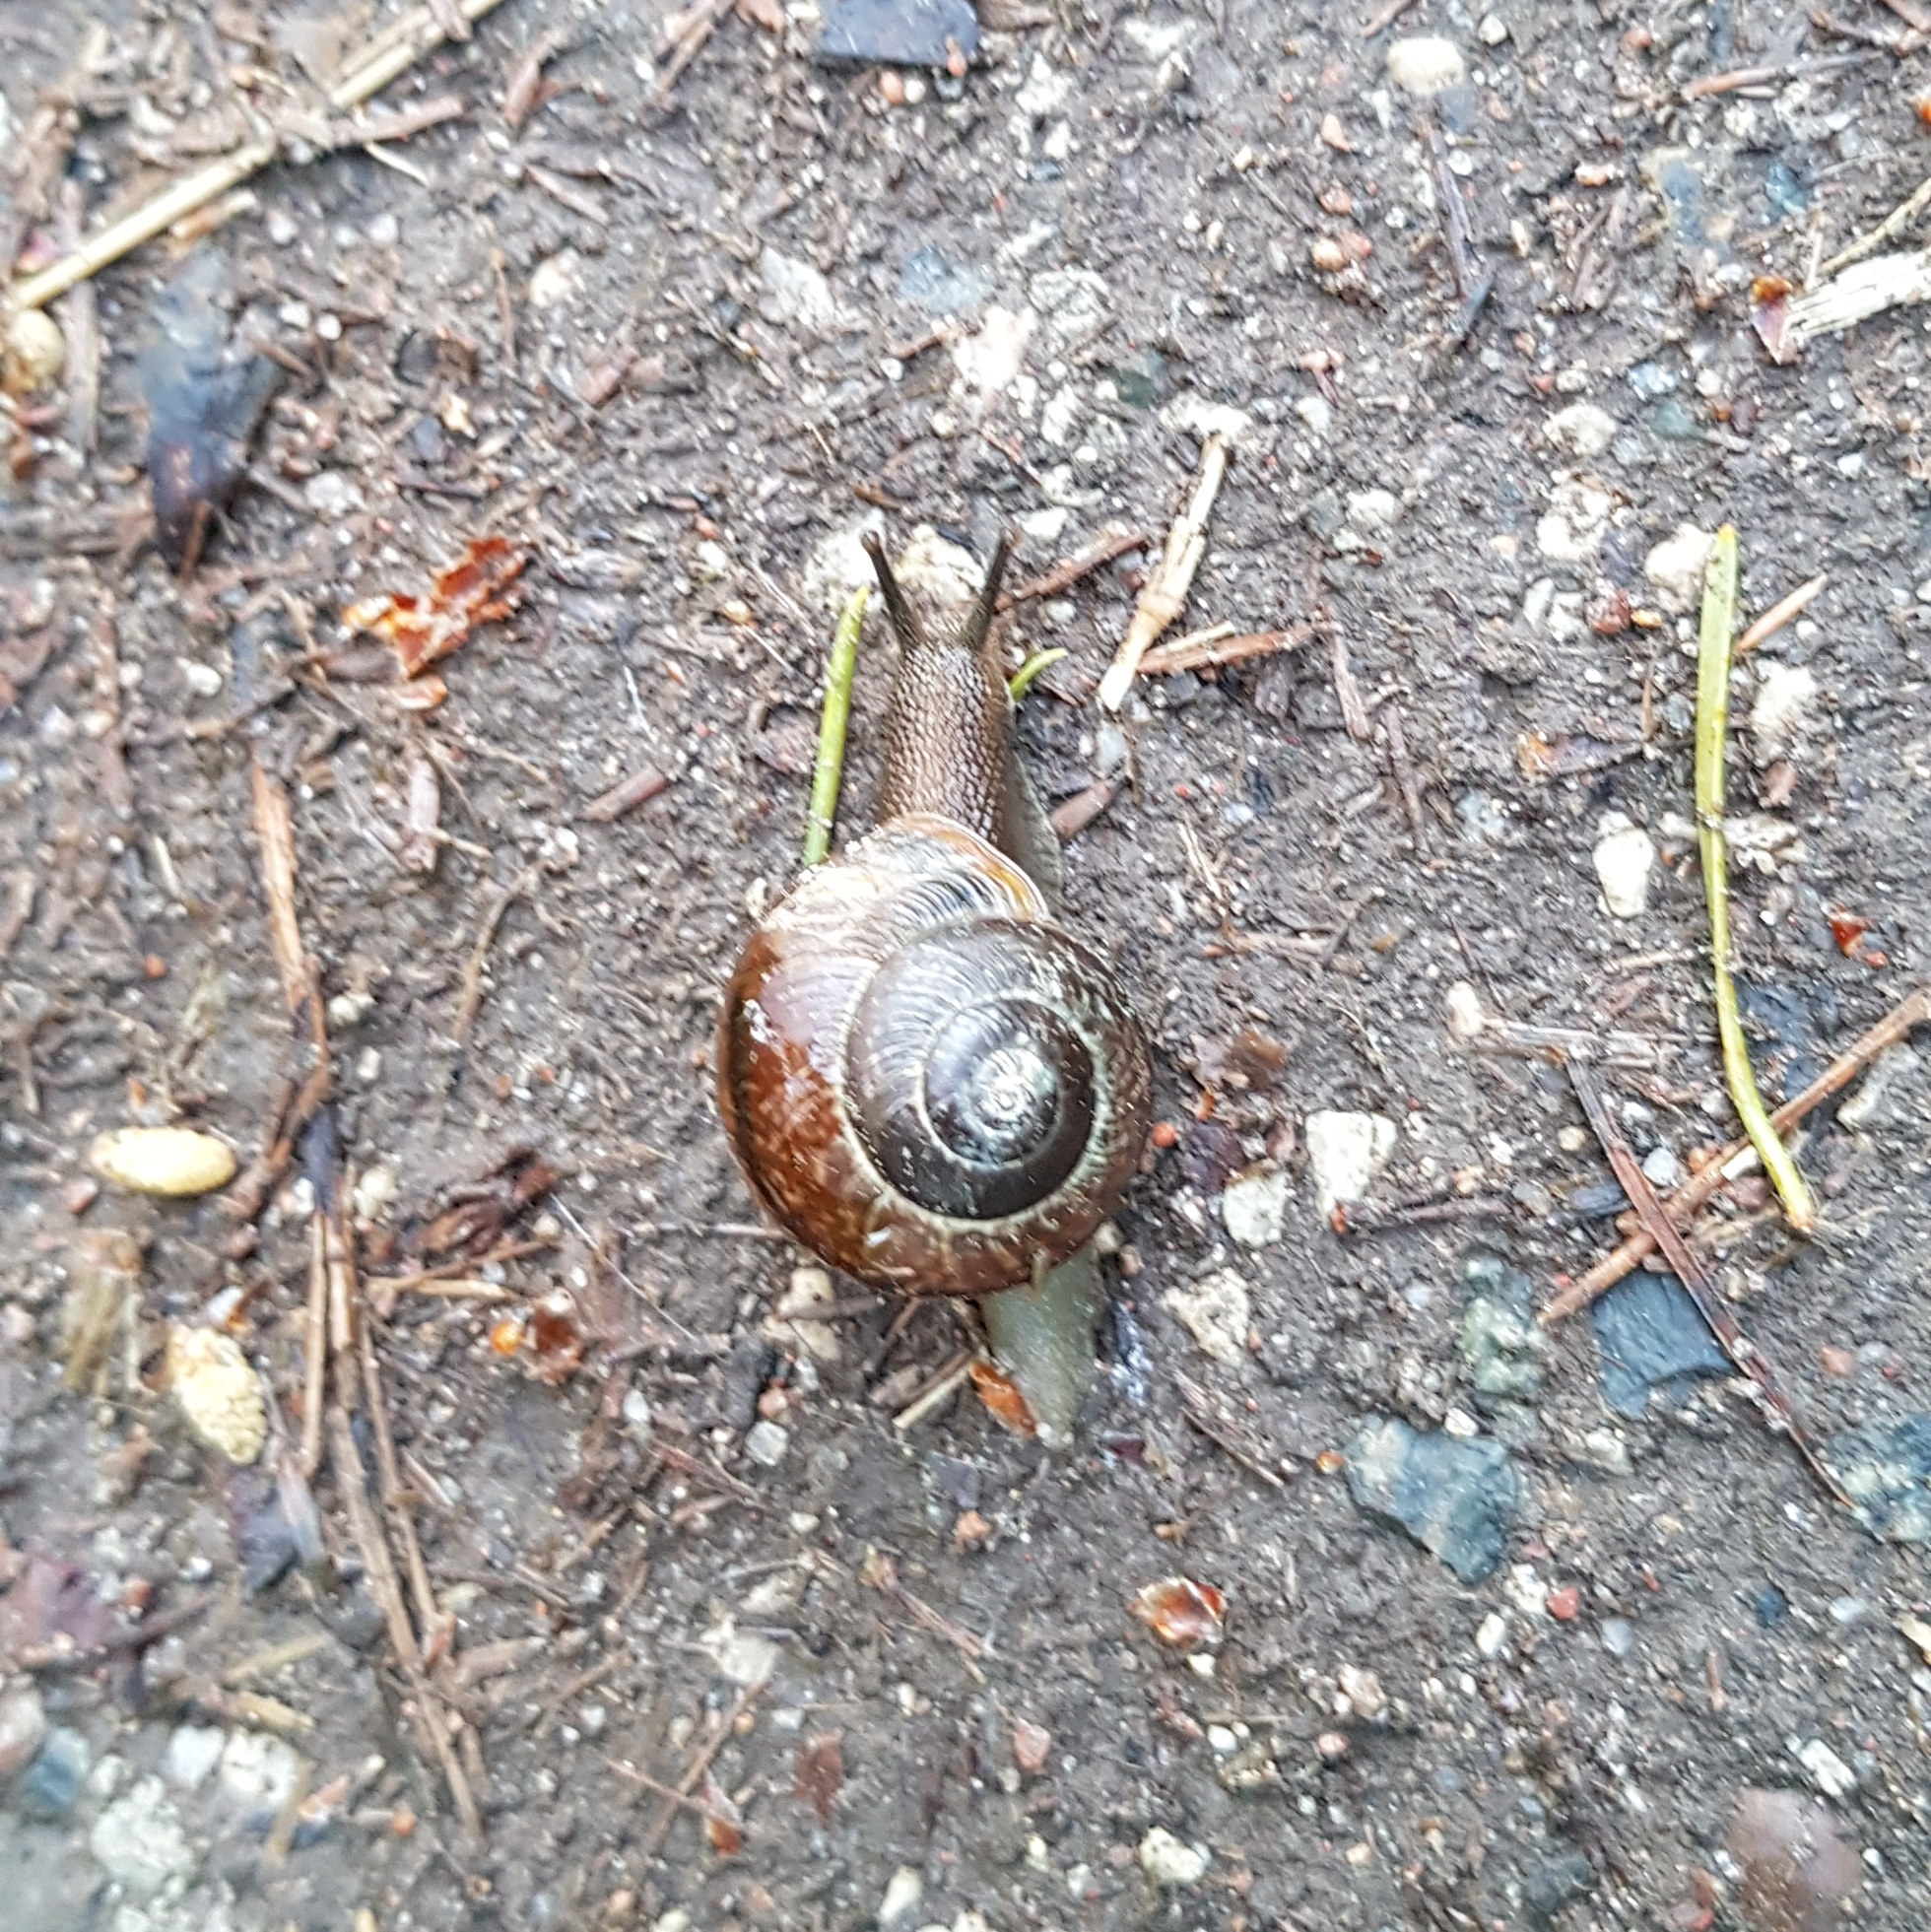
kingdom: Animalia
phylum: Mollusca
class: Gastropoda
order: Stylommatophora
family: Helicidae
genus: Arianta
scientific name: Arianta arbustorum
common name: Copse snail
